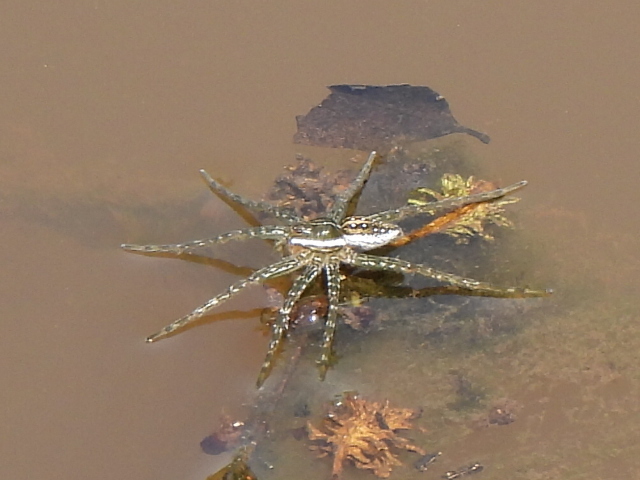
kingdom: Animalia
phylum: Arthropoda
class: Arachnida
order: Araneae
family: Pisauridae
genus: Dolomedes
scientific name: Dolomedes triton
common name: Six-spotted fishing spider
